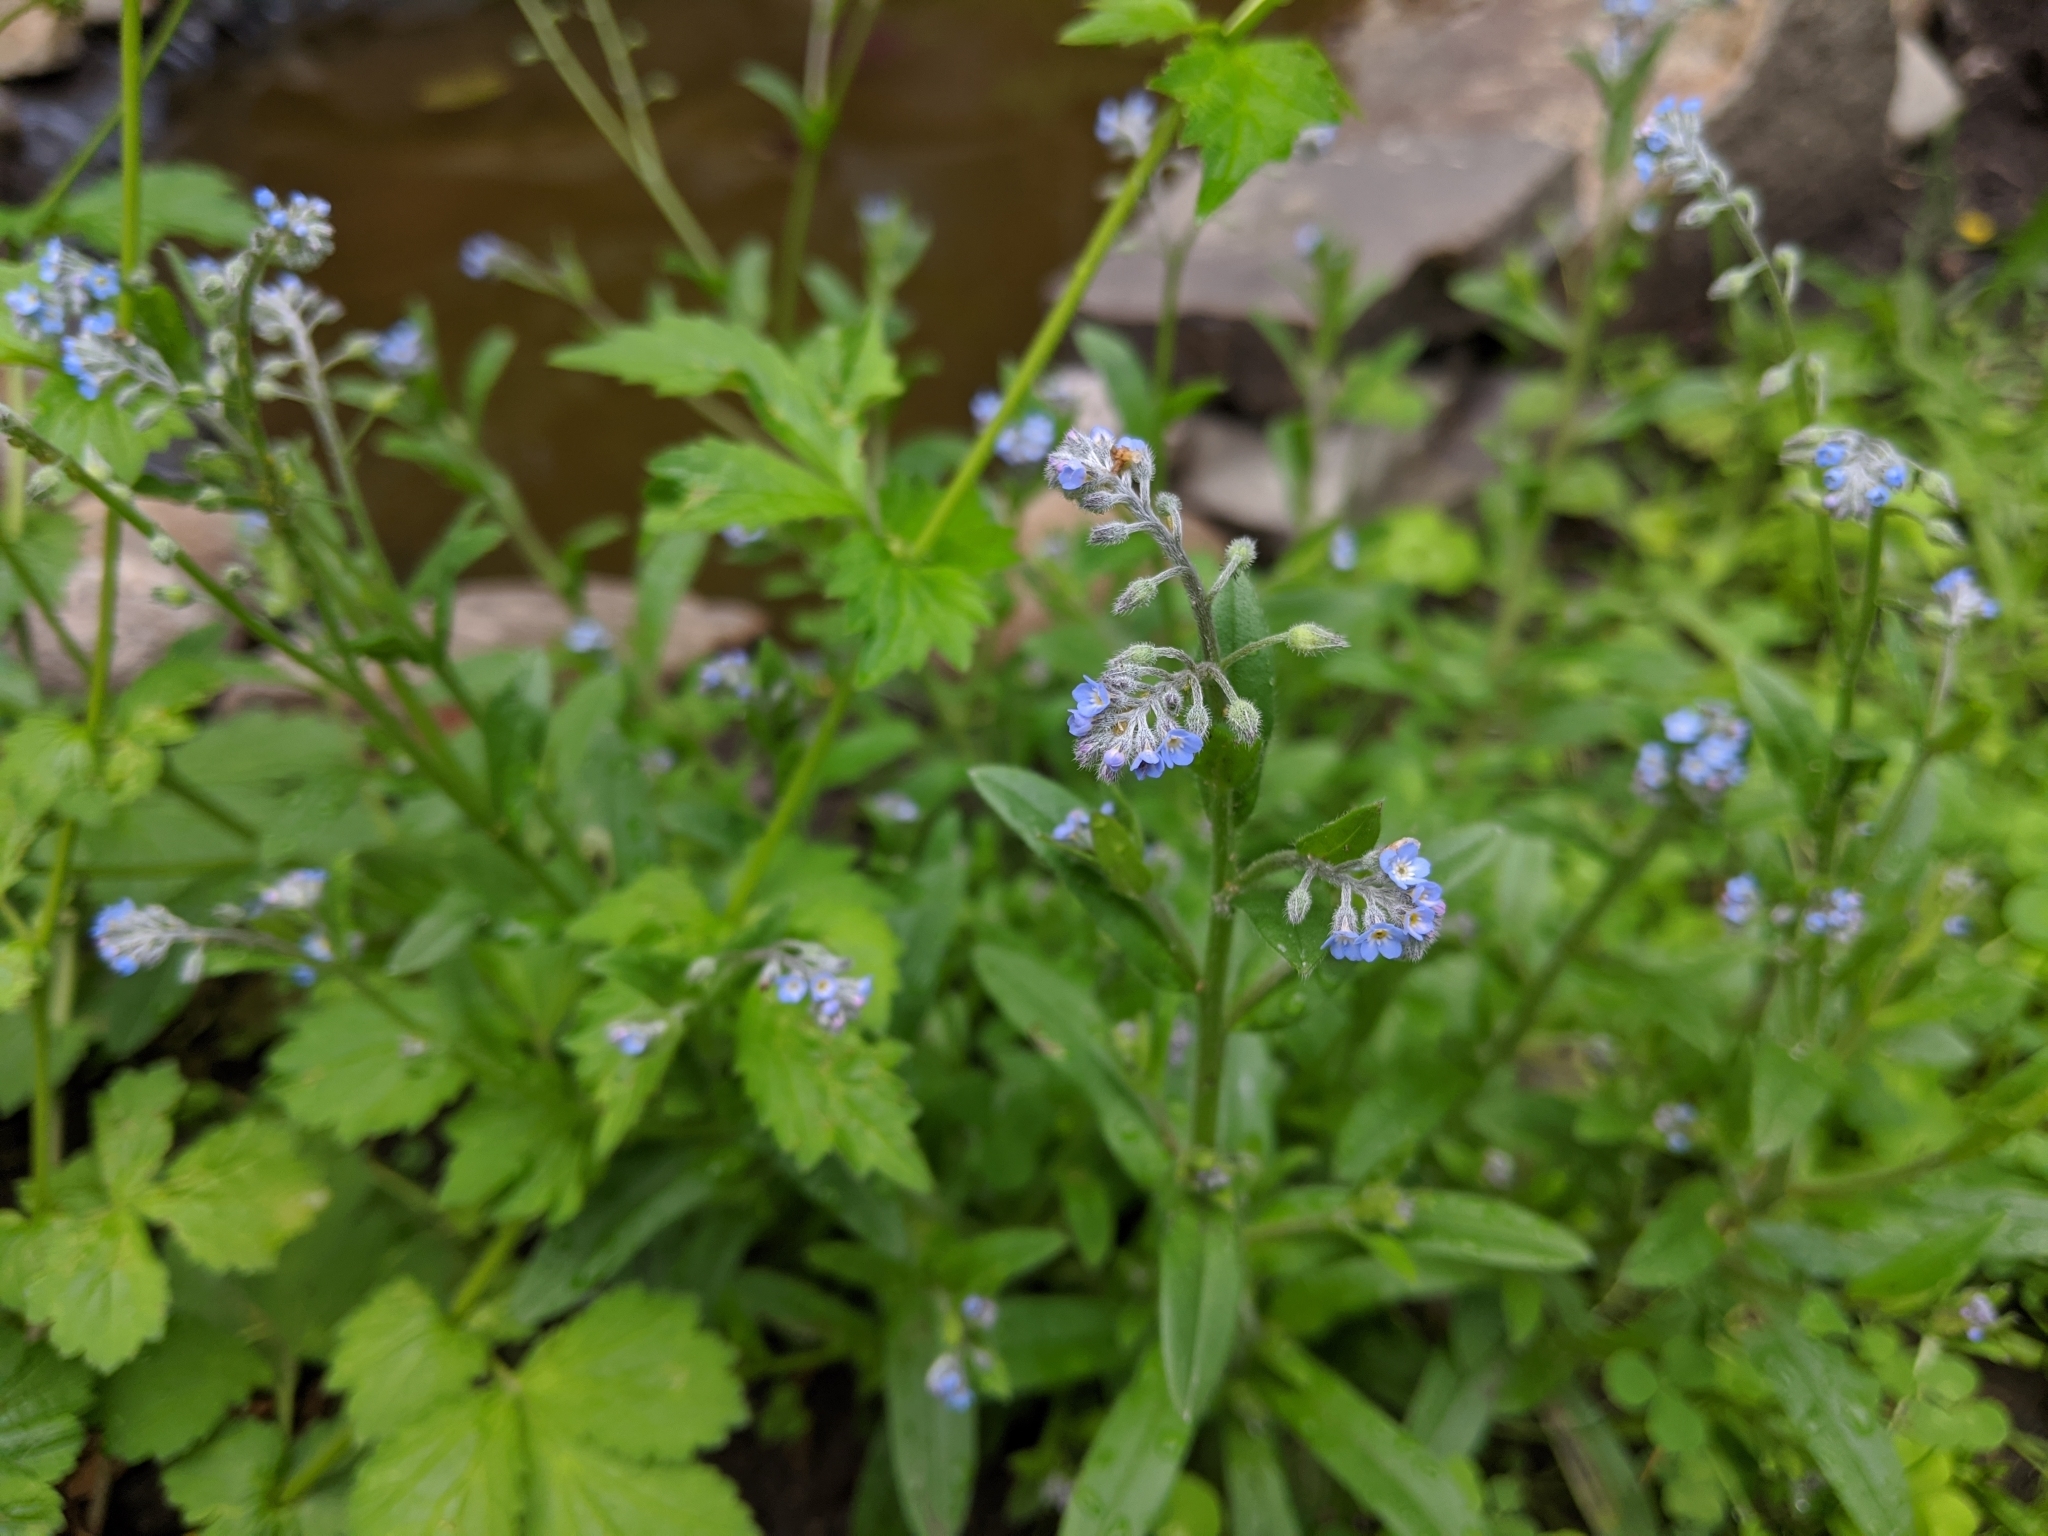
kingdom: Plantae
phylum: Tracheophyta
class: Magnoliopsida
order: Boraginales
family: Boraginaceae
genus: Myosotis
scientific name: Myosotis arvensis
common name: Field forget-me-not
